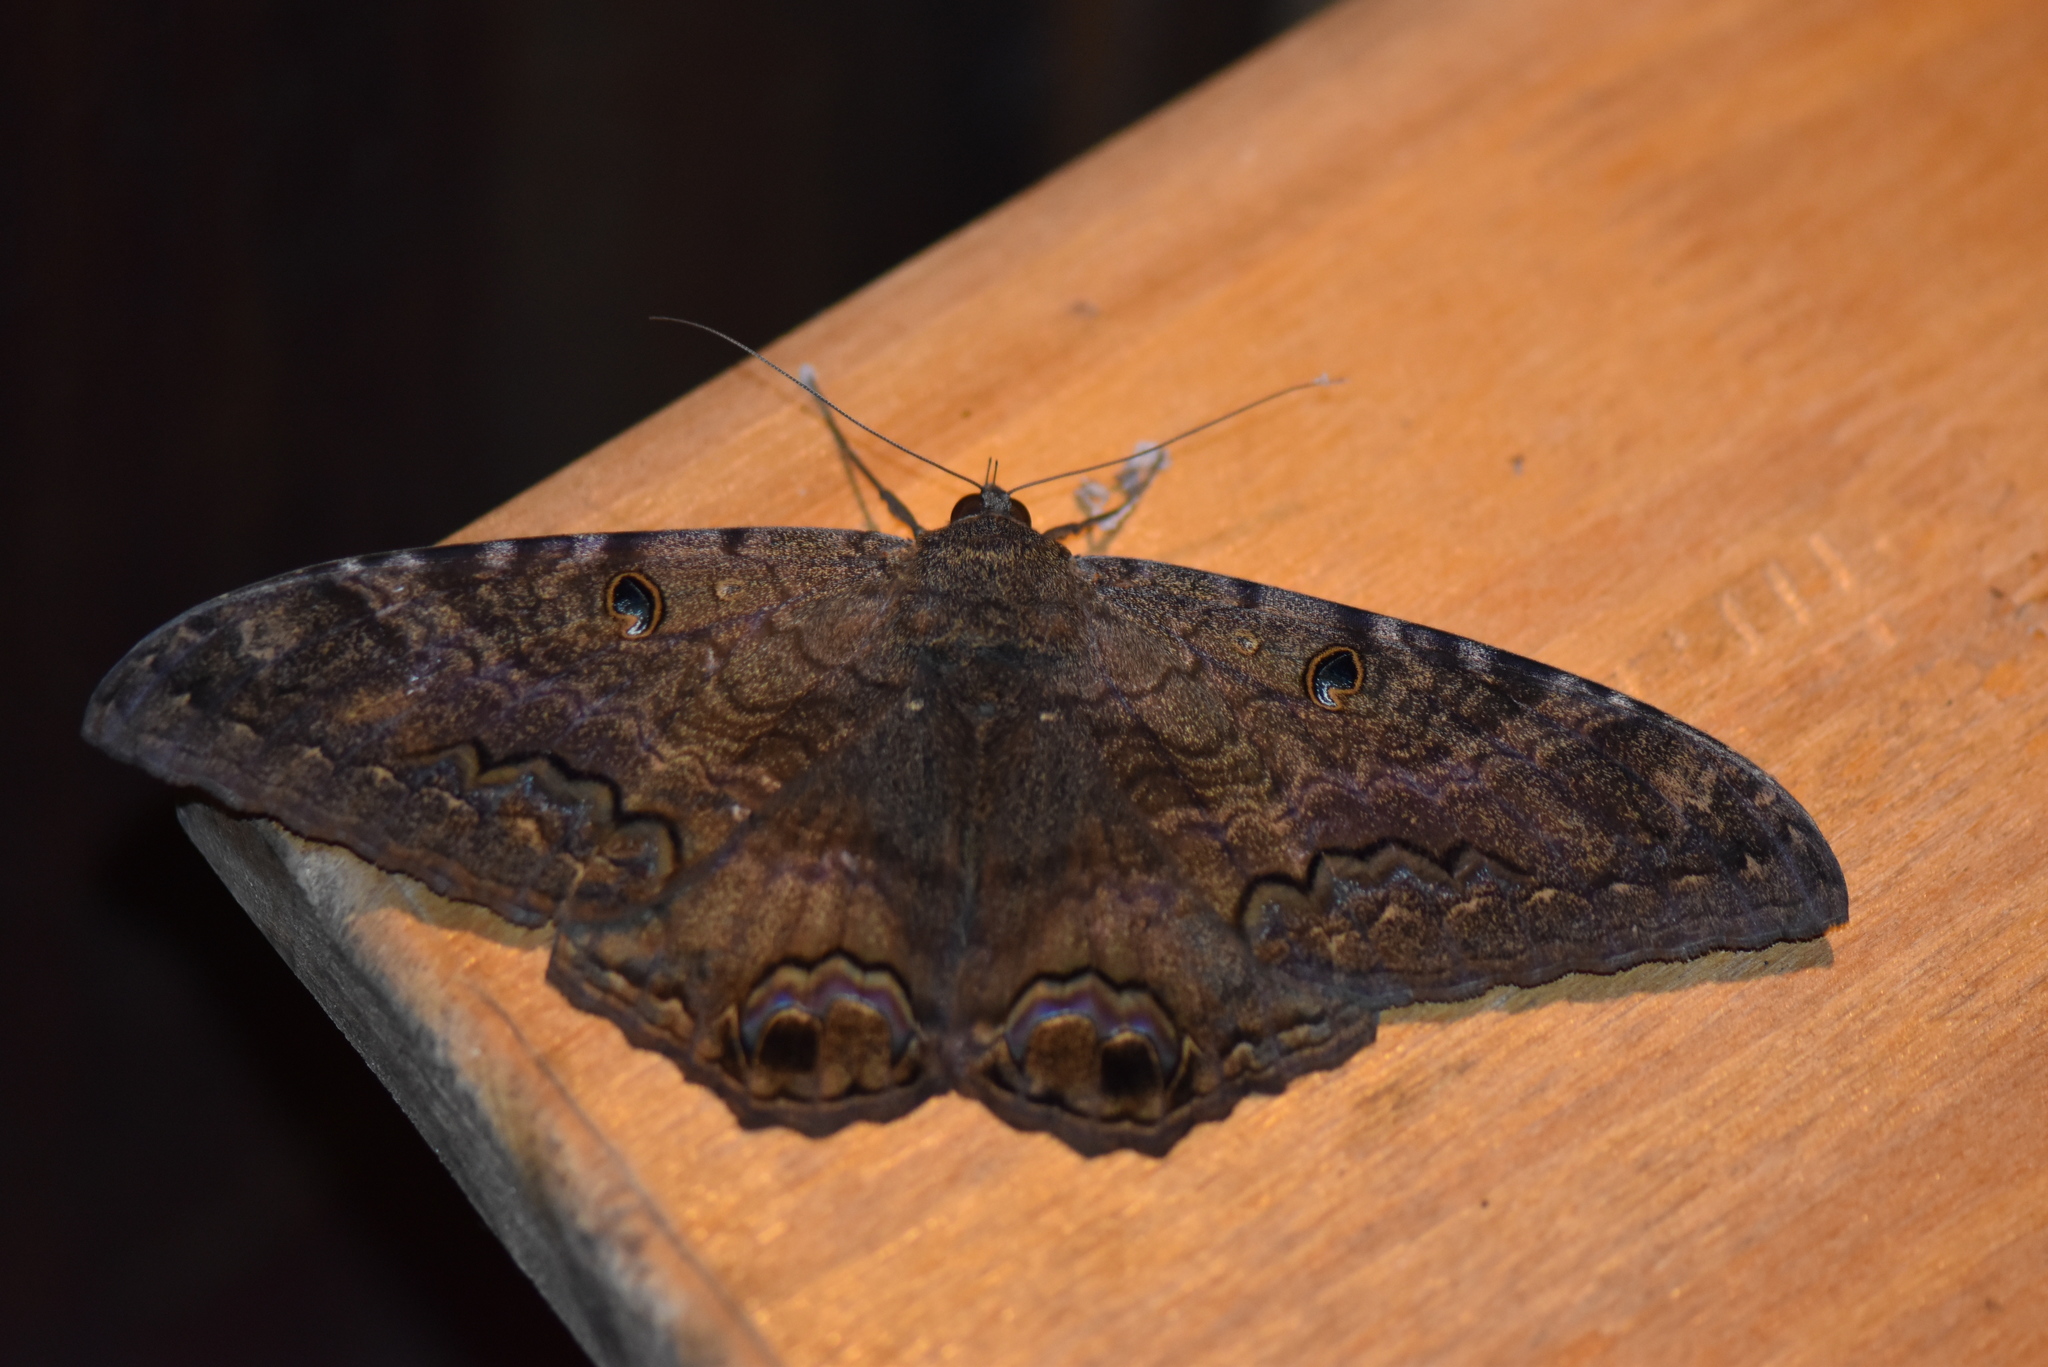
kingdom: Animalia
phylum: Arthropoda
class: Insecta
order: Lepidoptera
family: Erebidae
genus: Ascalapha
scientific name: Ascalapha odorata
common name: Black witch
